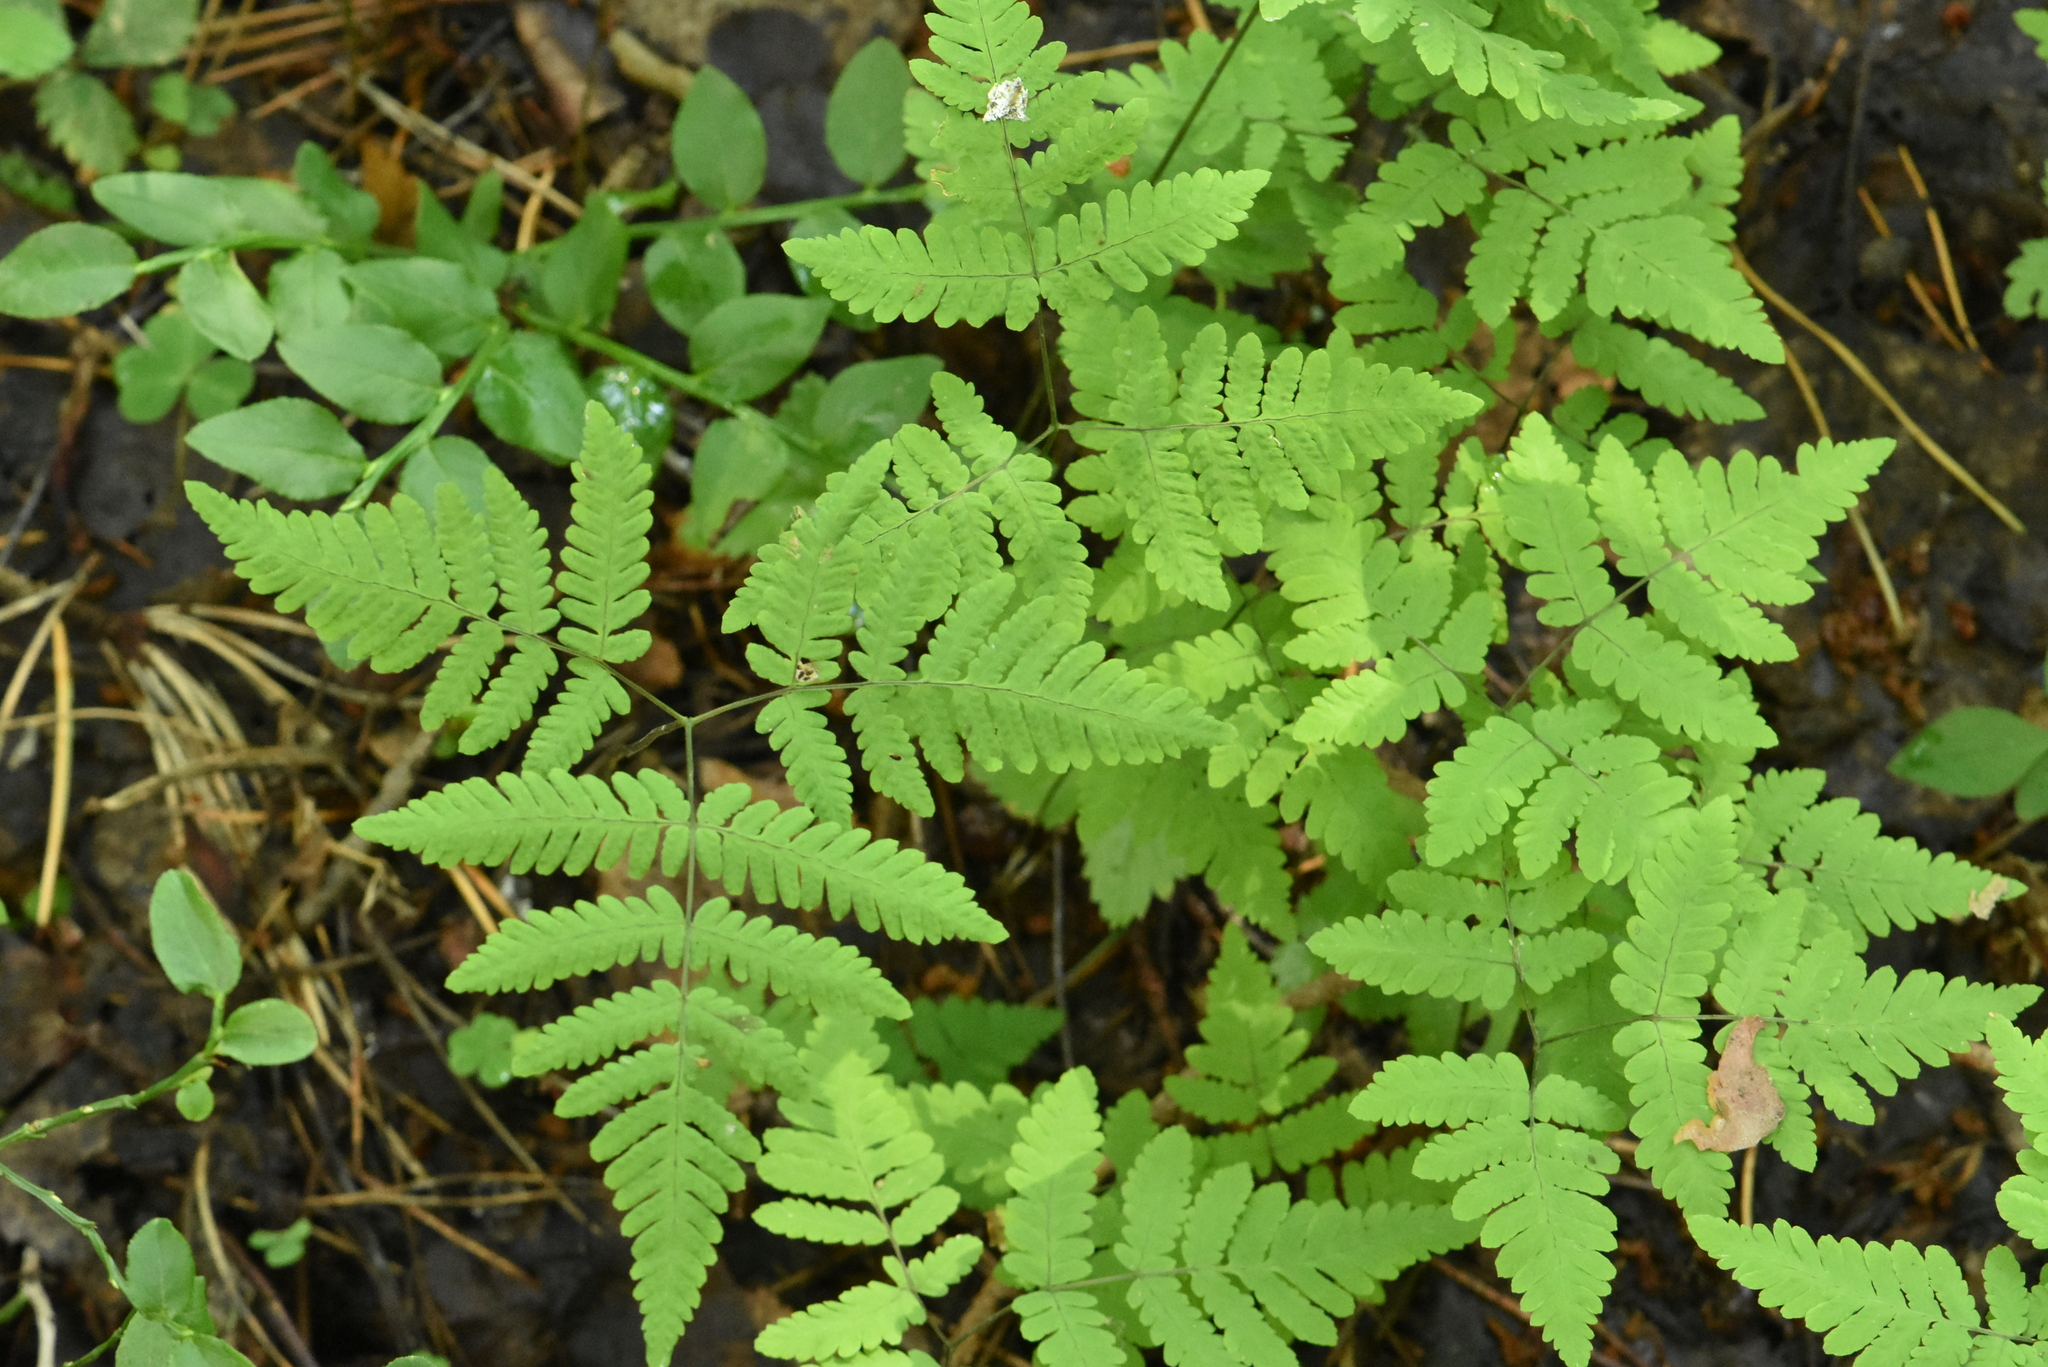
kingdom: Plantae
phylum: Tracheophyta
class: Polypodiopsida
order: Polypodiales
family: Cystopteridaceae
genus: Gymnocarpium
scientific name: Gymnocarpium dryopteris
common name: Oak fern
